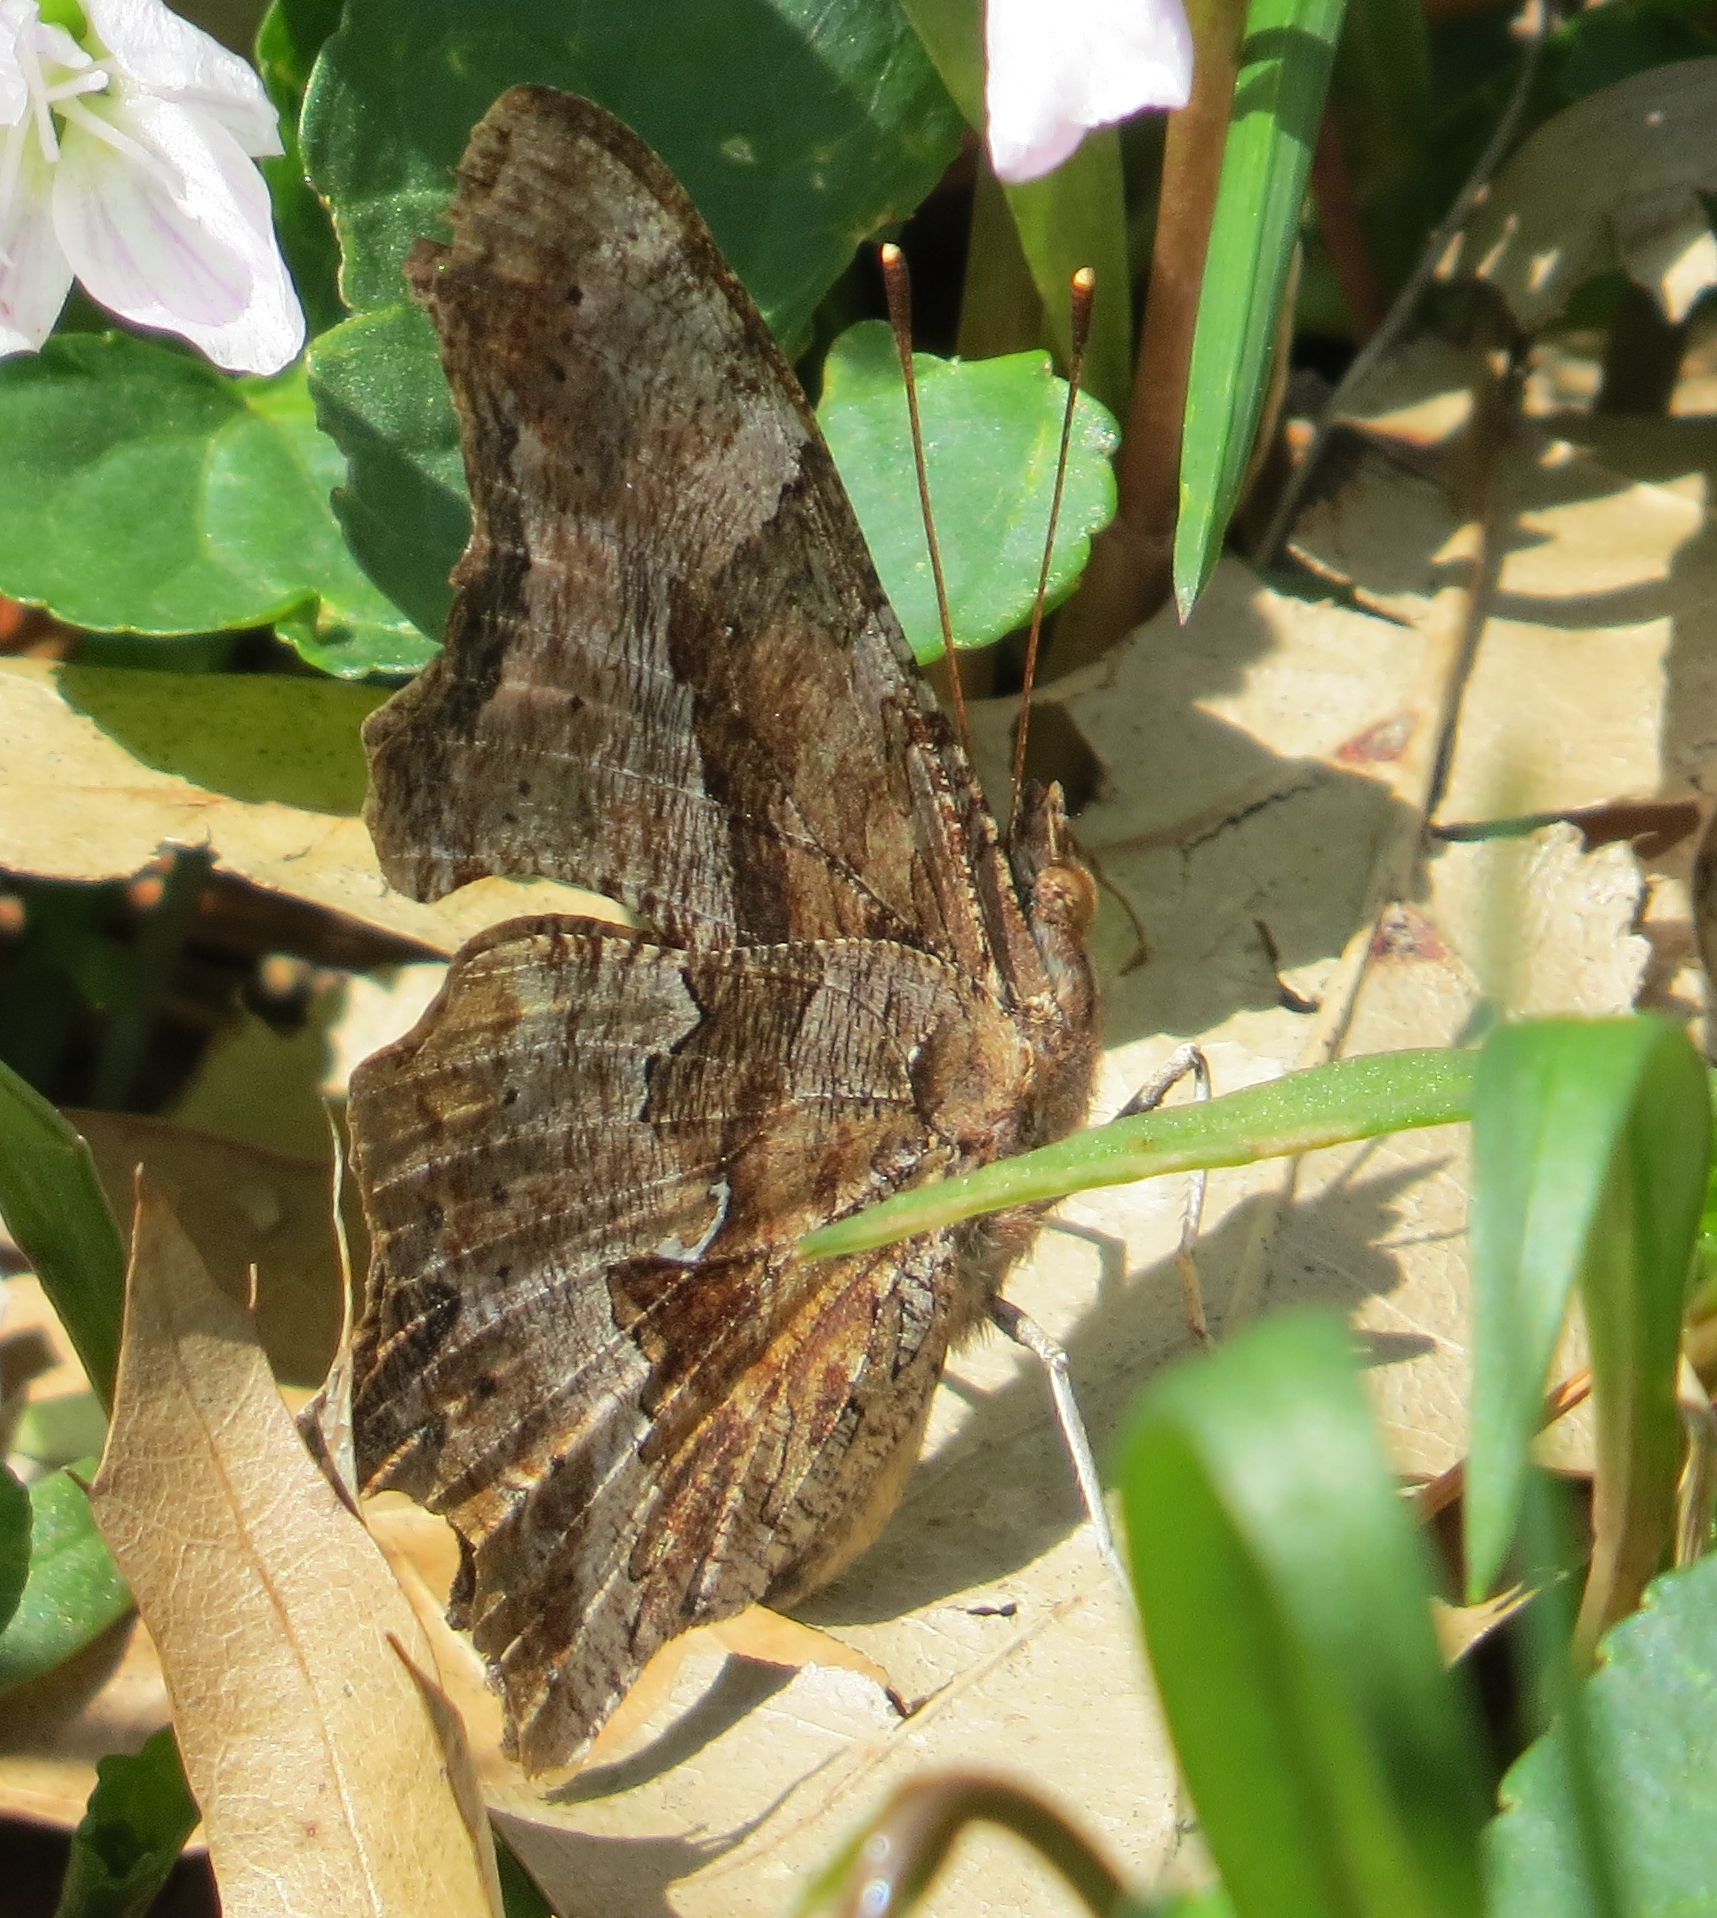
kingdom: Animalia
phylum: Arthropoda
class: Insecta
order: Lepidoptera
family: Nymphalidae
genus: Polygonia
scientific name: Polygonia comma
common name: Eastern comma
